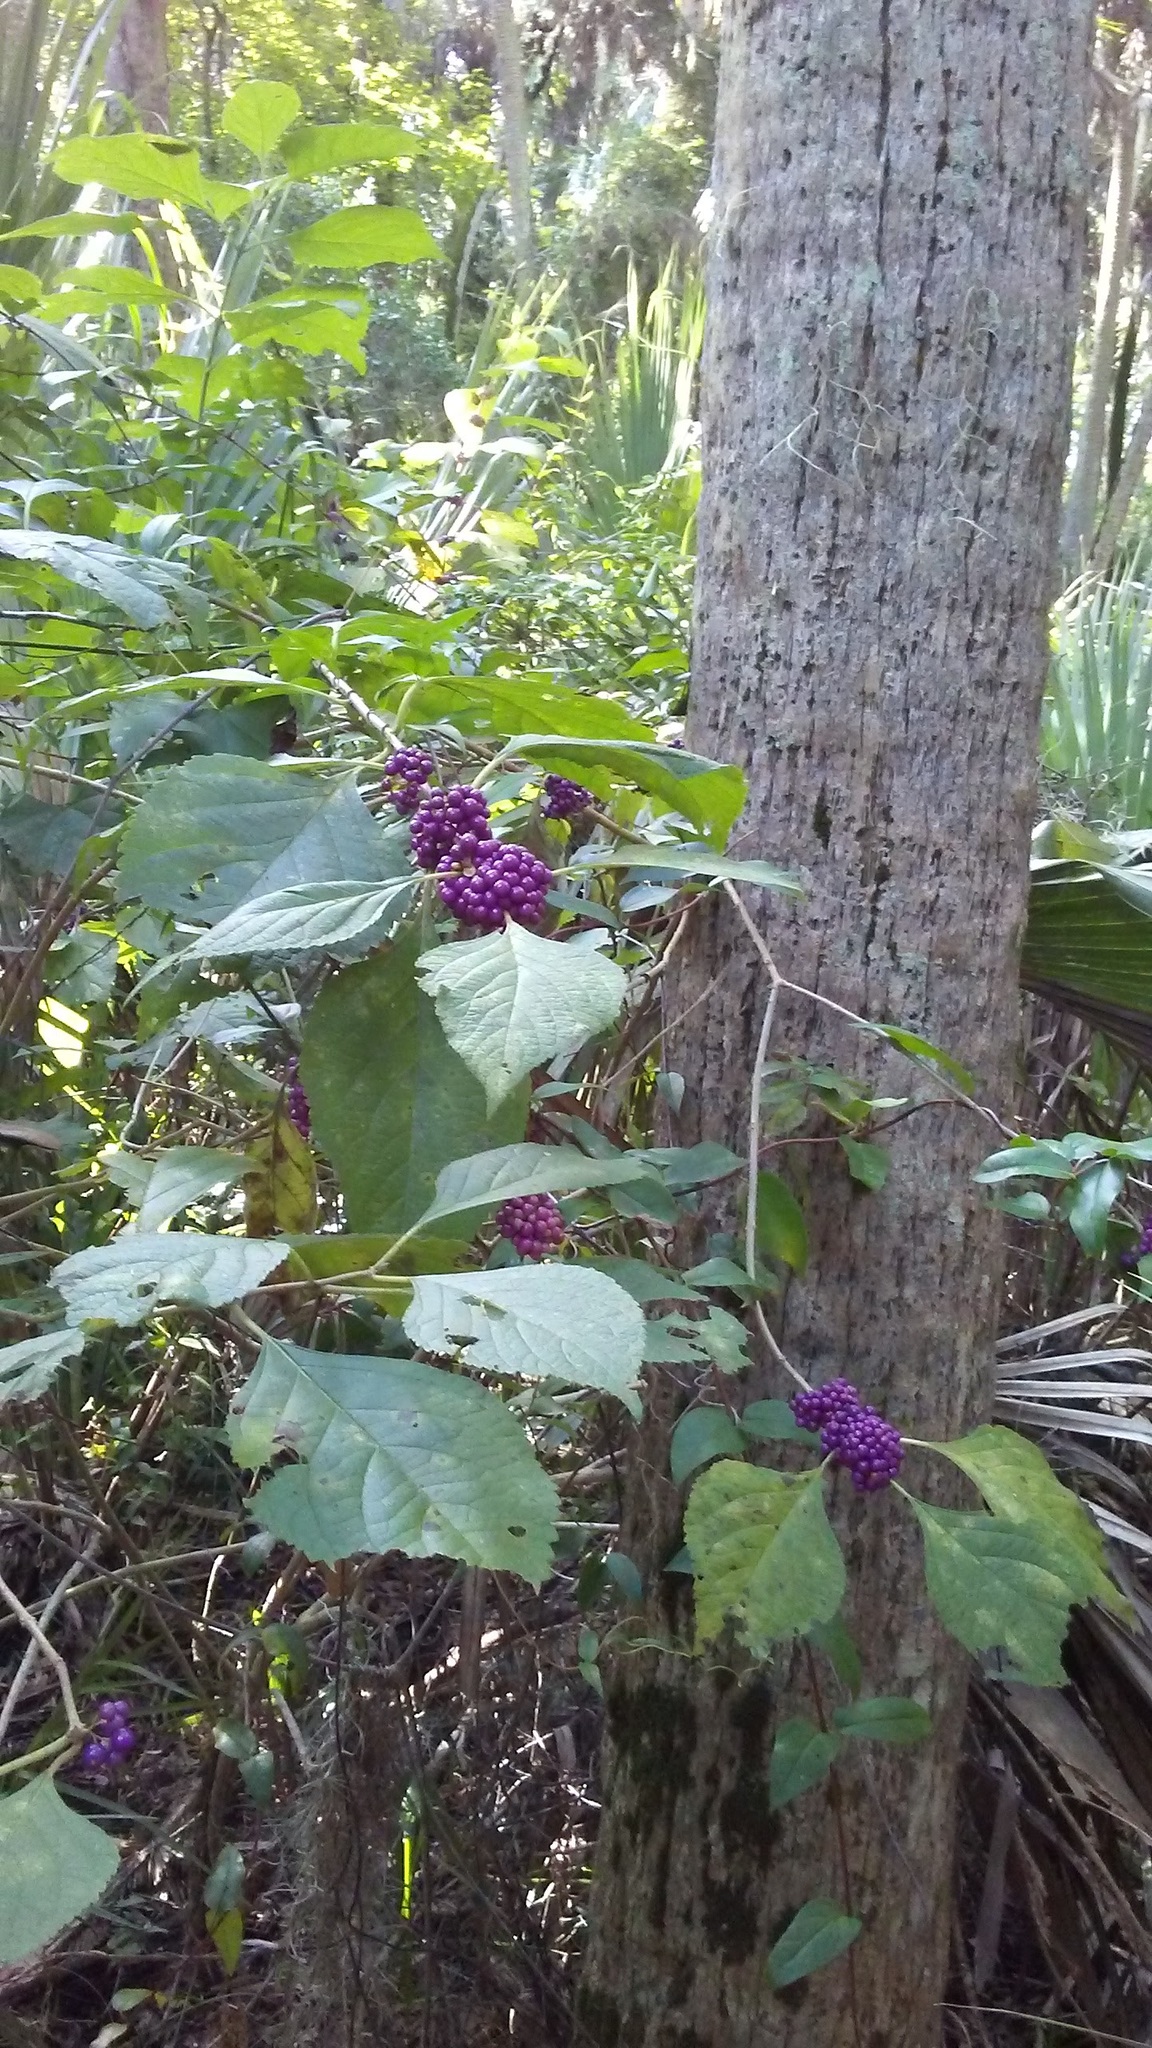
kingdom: Plantae
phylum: Tracheophyta
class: Magnoliopsida
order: Lamiales
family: Lamiaceae
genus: Callicarpa
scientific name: Callicarpa americana
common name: American beautyberry
